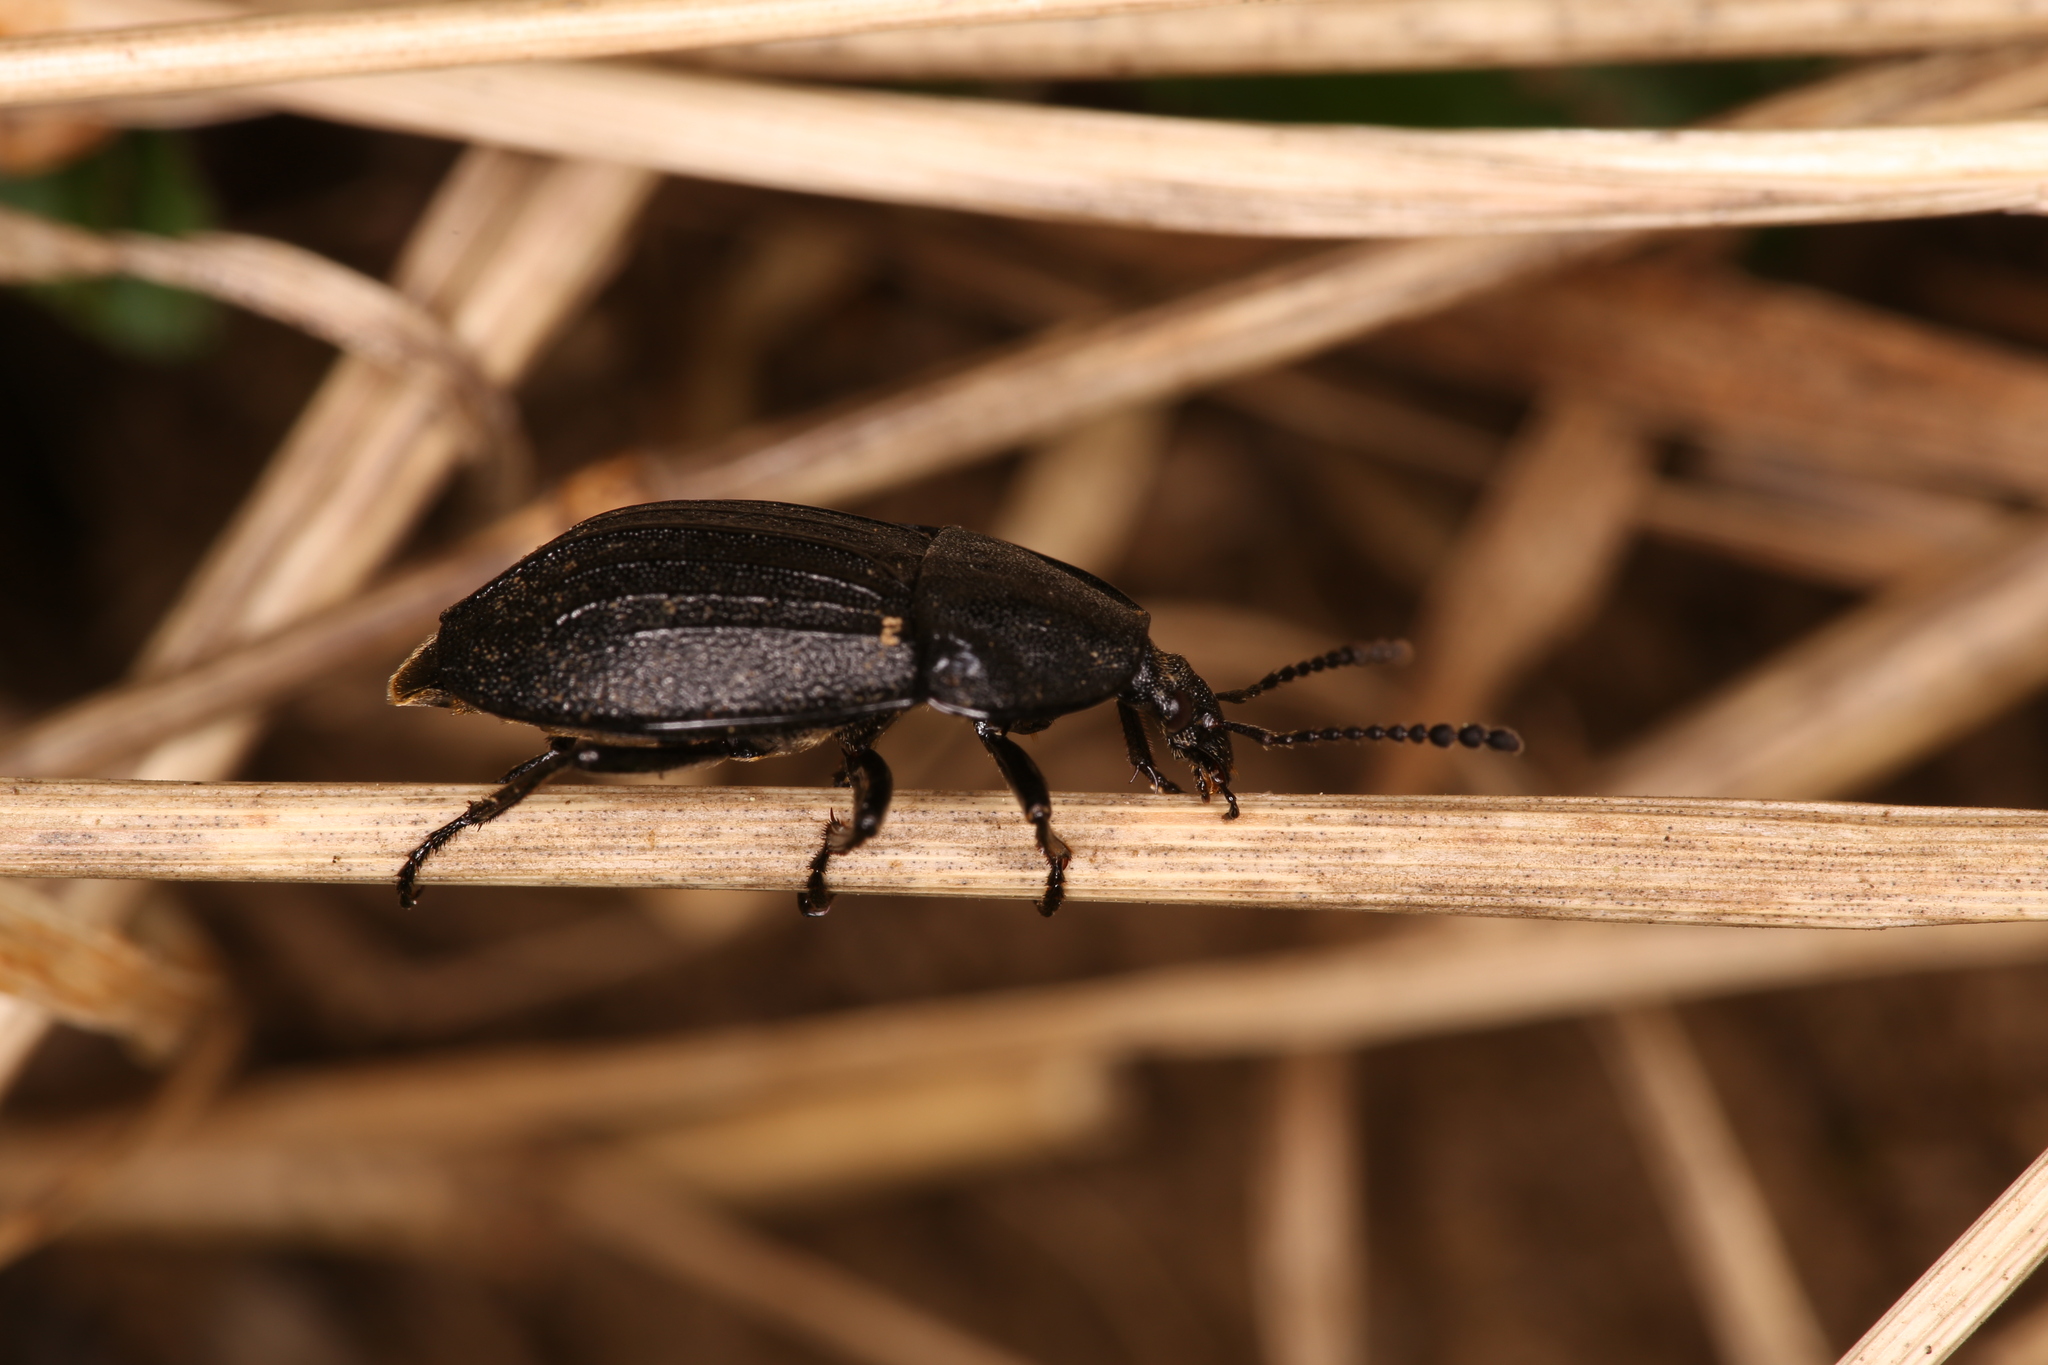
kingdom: Animalia
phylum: Arthropoda
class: Insecta
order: Coleoptera
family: Staphylinidae
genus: Silpha
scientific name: Silpha atrata
